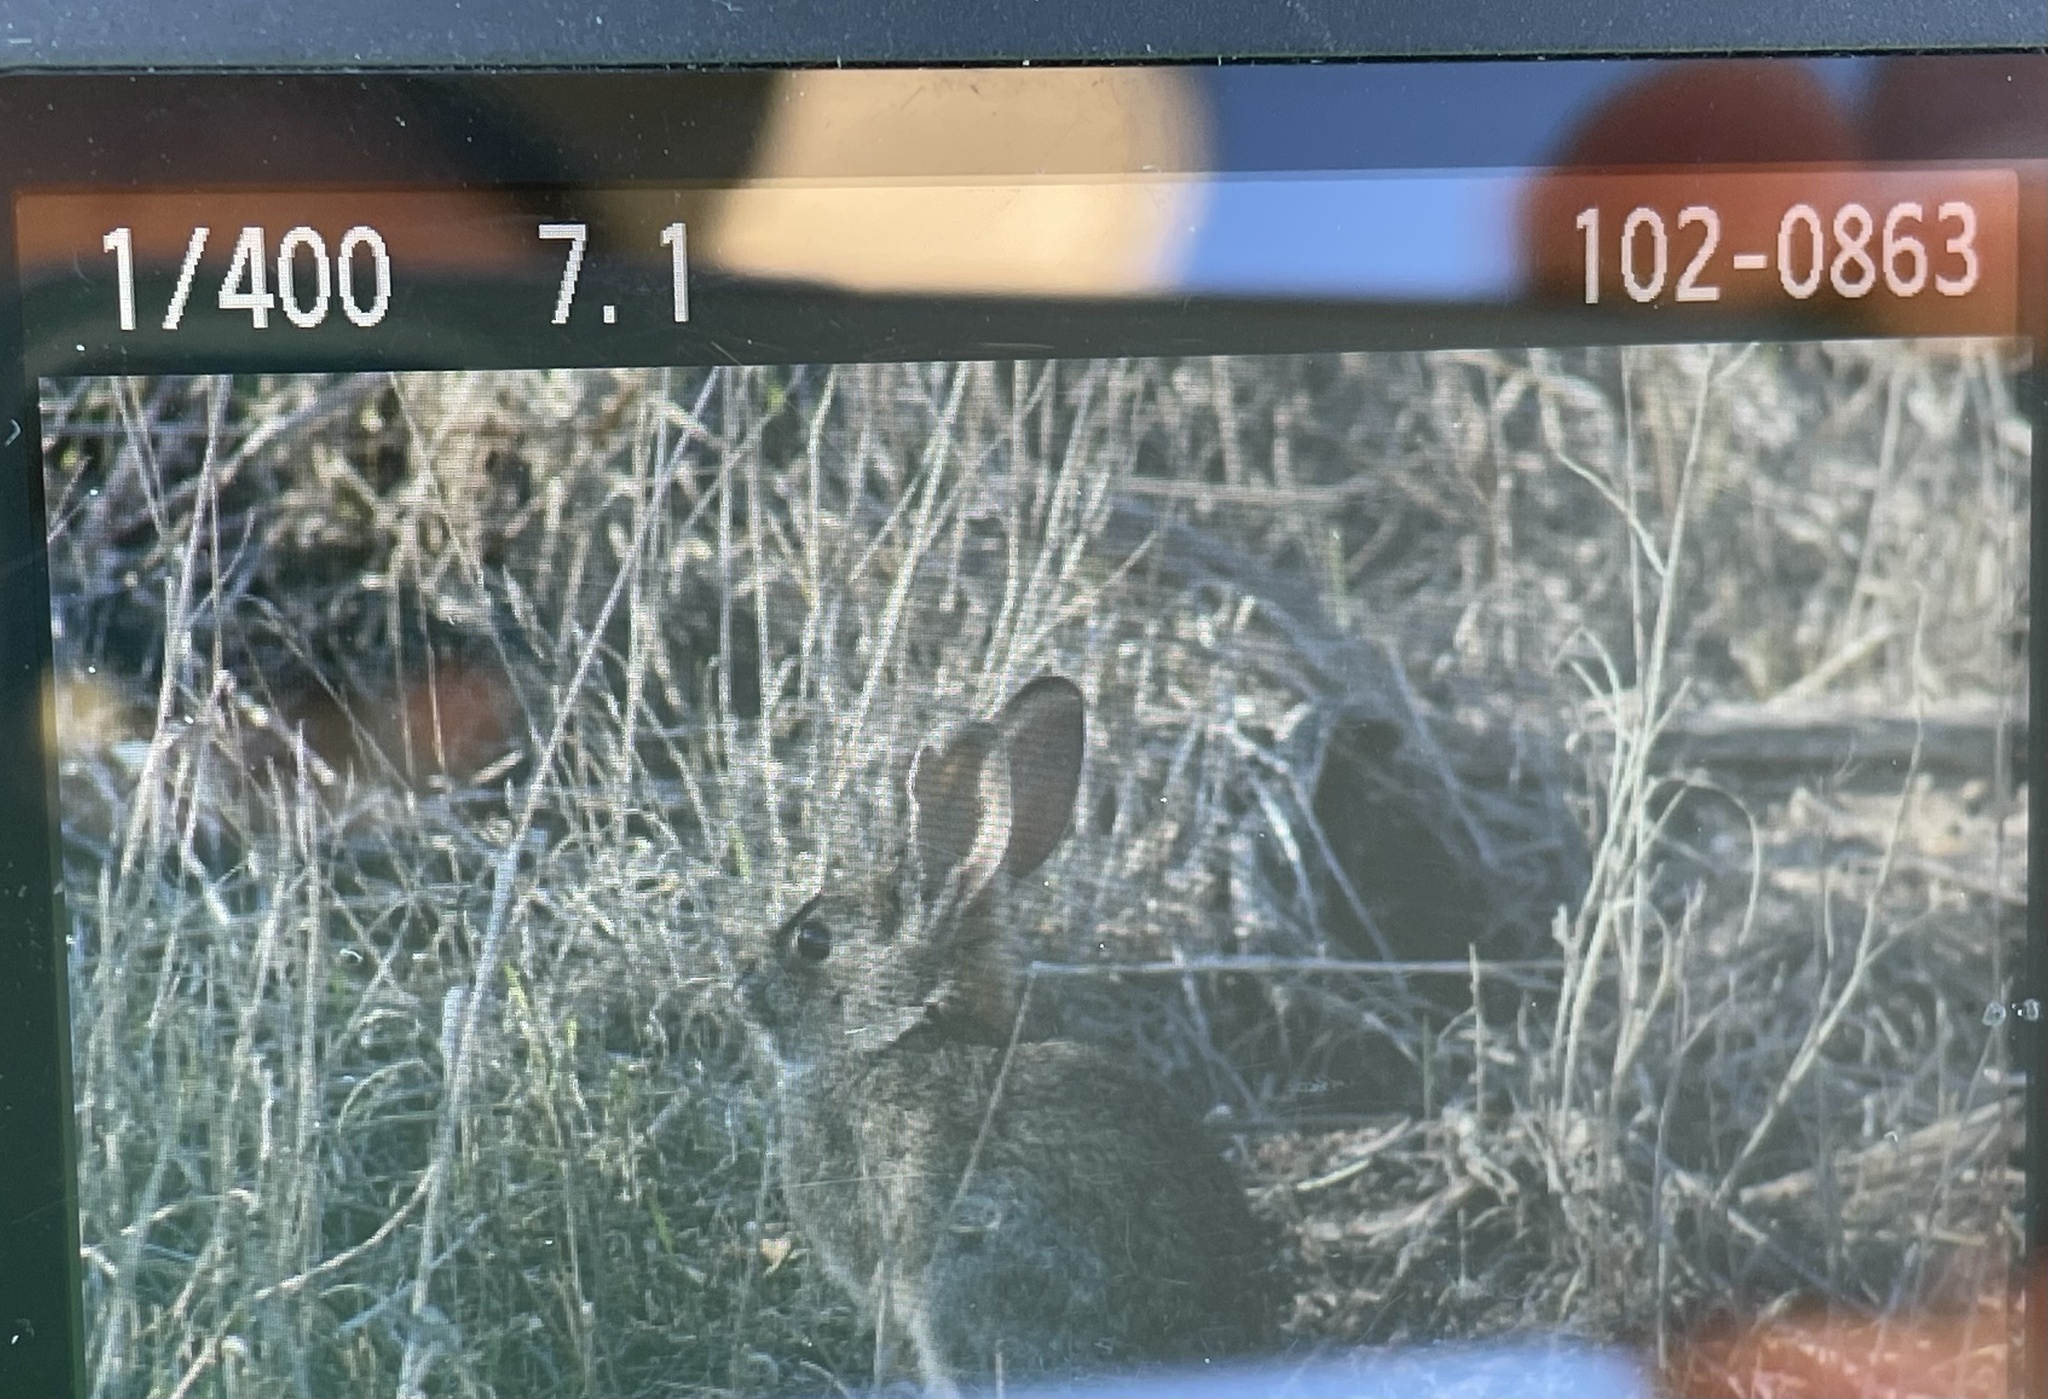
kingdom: Animalia
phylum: Chordata
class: Mammalia
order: Lagomorpha
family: Leporidae
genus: Sylvilagus
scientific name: Sylvilagus bachmani
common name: Brush rabbit
